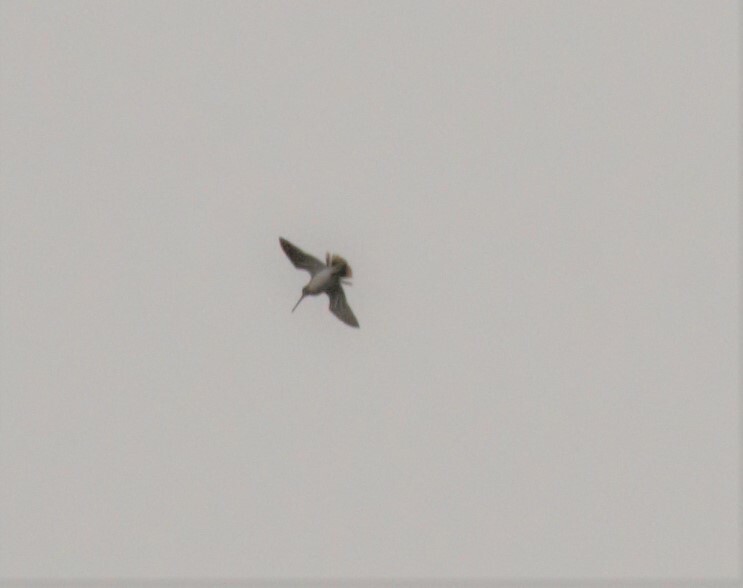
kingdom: Animalia
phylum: Chordata
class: Aves
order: Charadriiformes
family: Scolopacidae
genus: Gallinago
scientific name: Gallinago gallinago
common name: Common snipe
